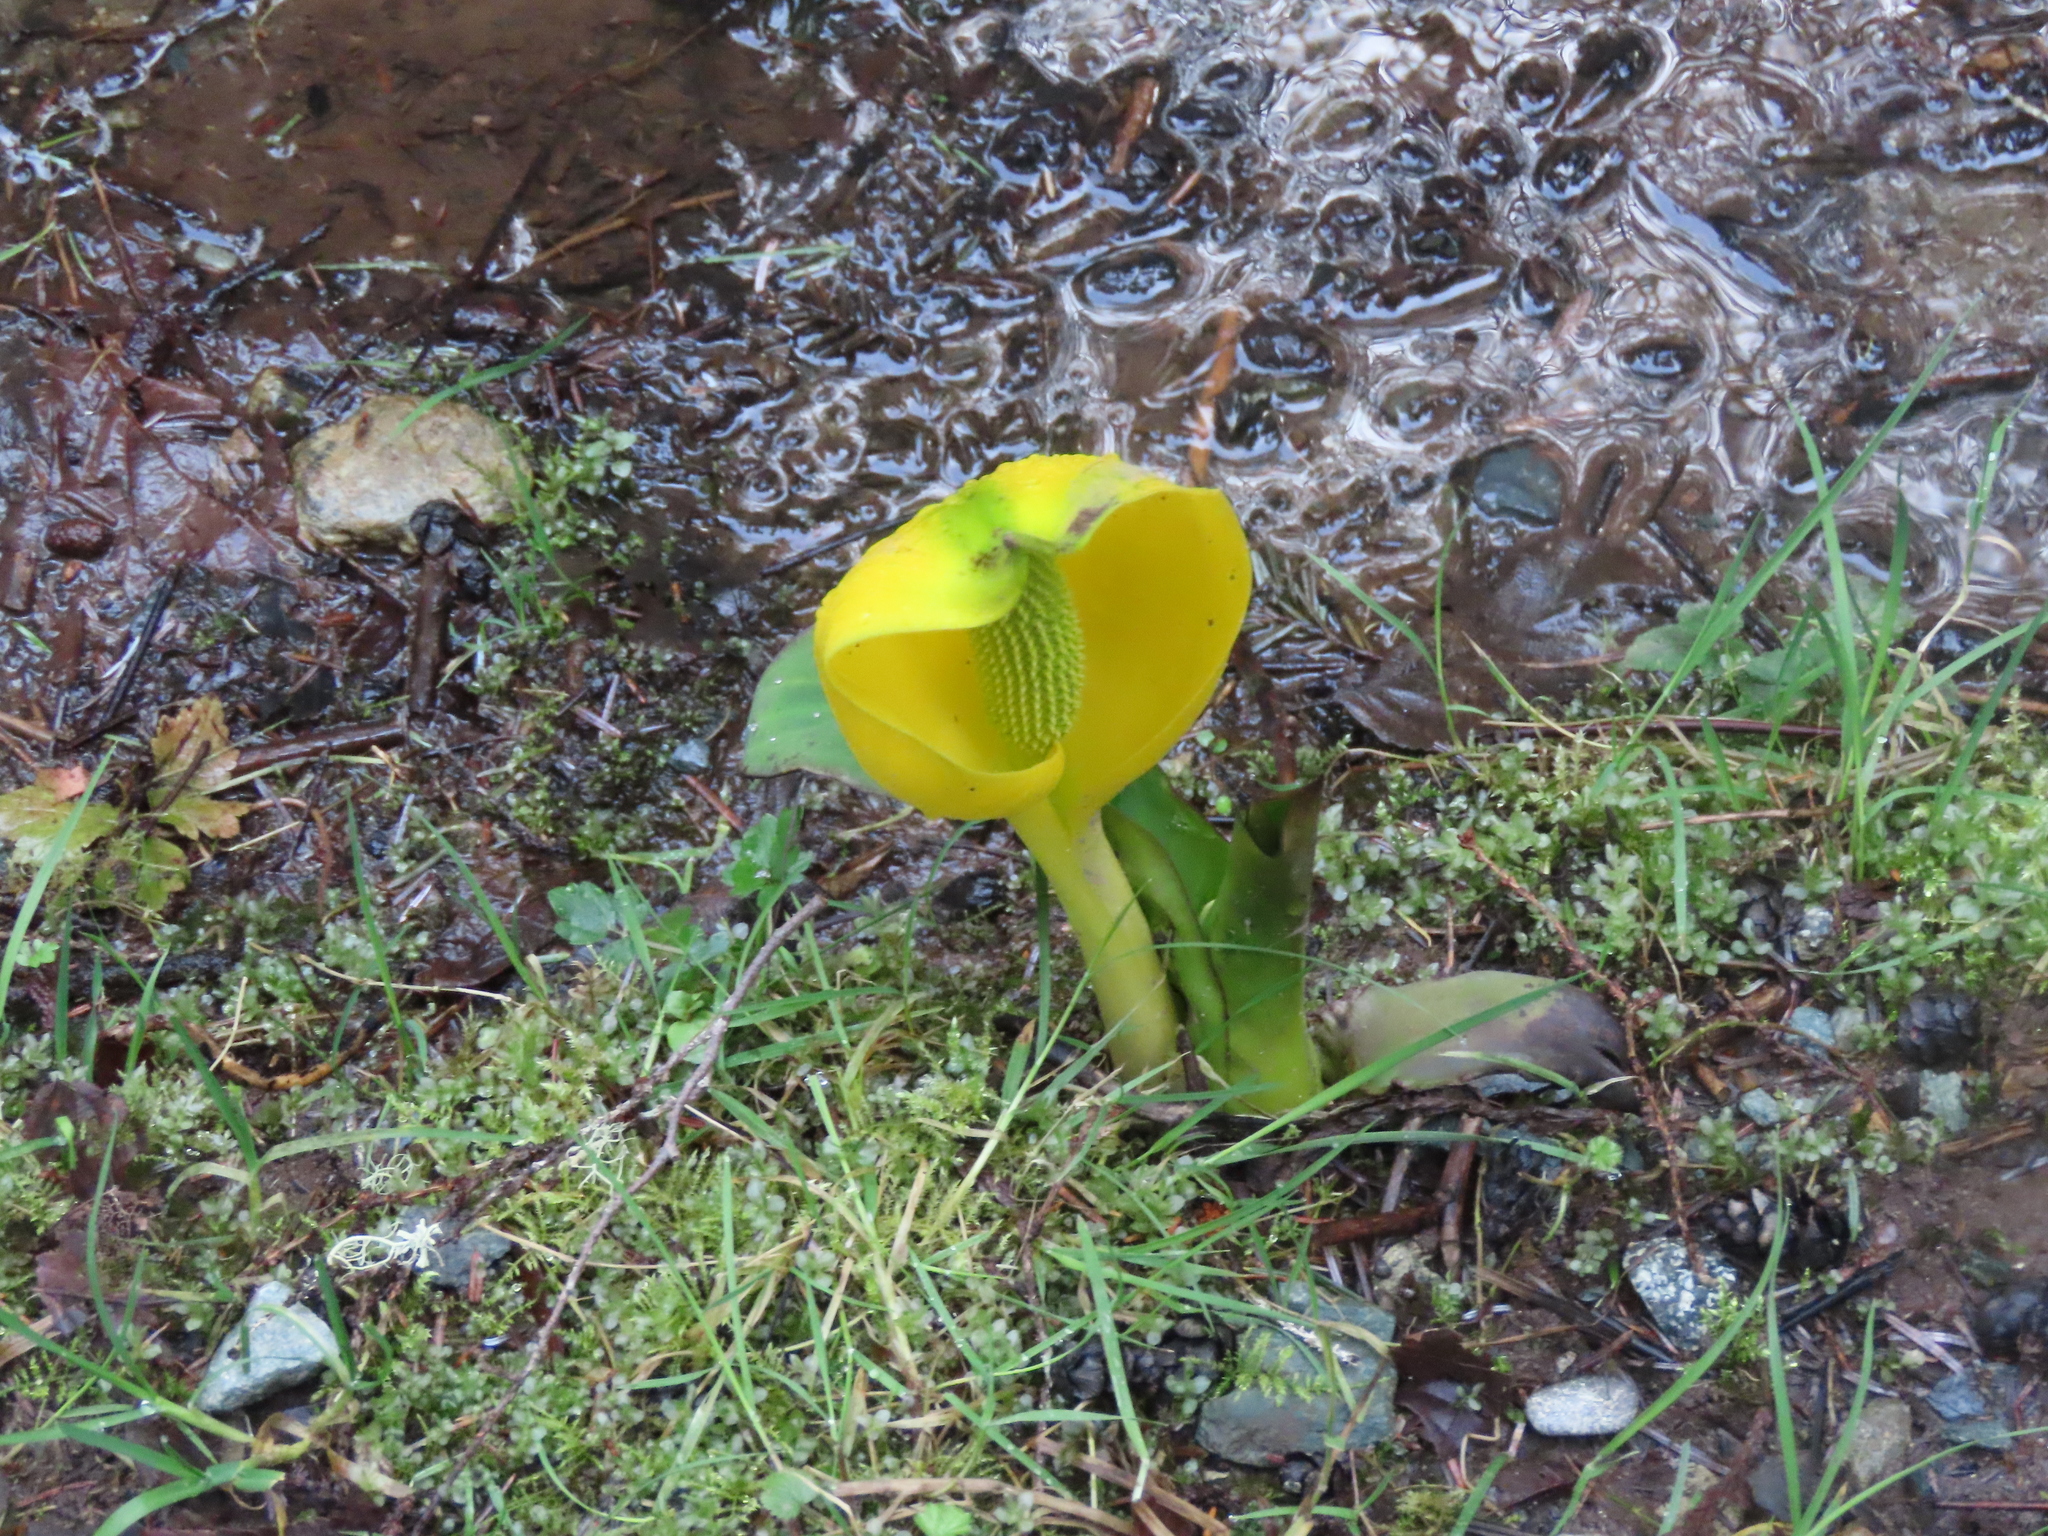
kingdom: Plantae
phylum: Tracheophyta
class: Liliopsida
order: Alismatales
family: Araceae
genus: Lysichiton
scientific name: Lysichiton americanus
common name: American skunk cabbage
